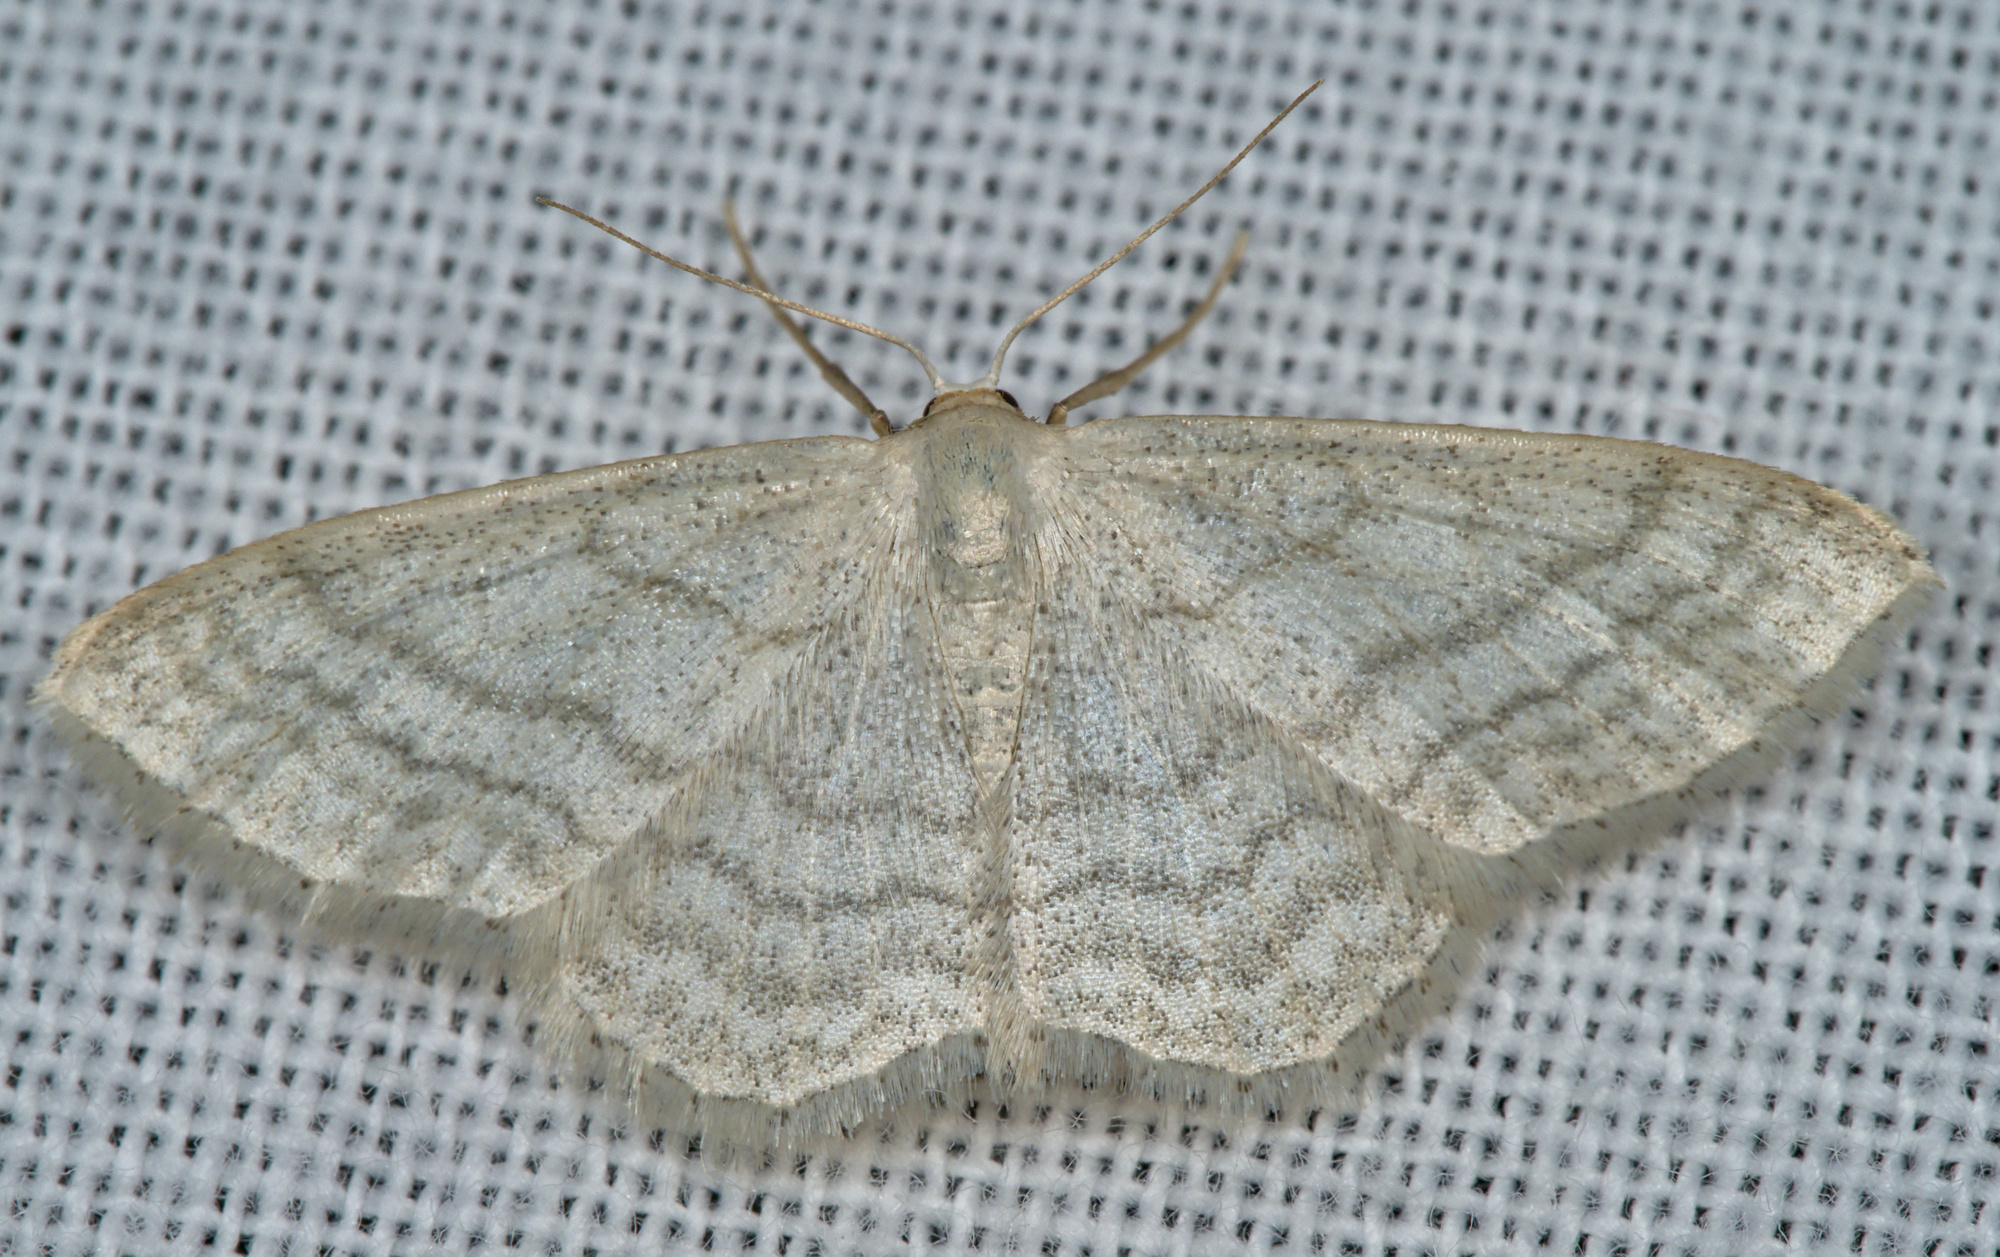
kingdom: Animalia
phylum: Arthropoda
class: Insecta
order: Lepidoptera
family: Geometridae
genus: Idaea
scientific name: Idaea subsericeata
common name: Satin wave
